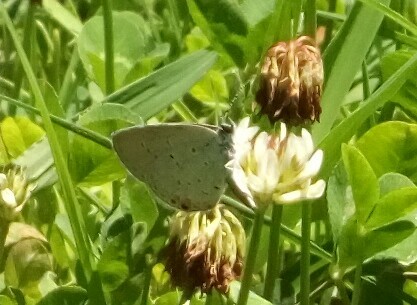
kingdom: Animalia
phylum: Arthropoda
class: Insecta
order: Lepidoptera
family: Lycaenidae
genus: Elkalyce
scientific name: Elkalyce comyntas
